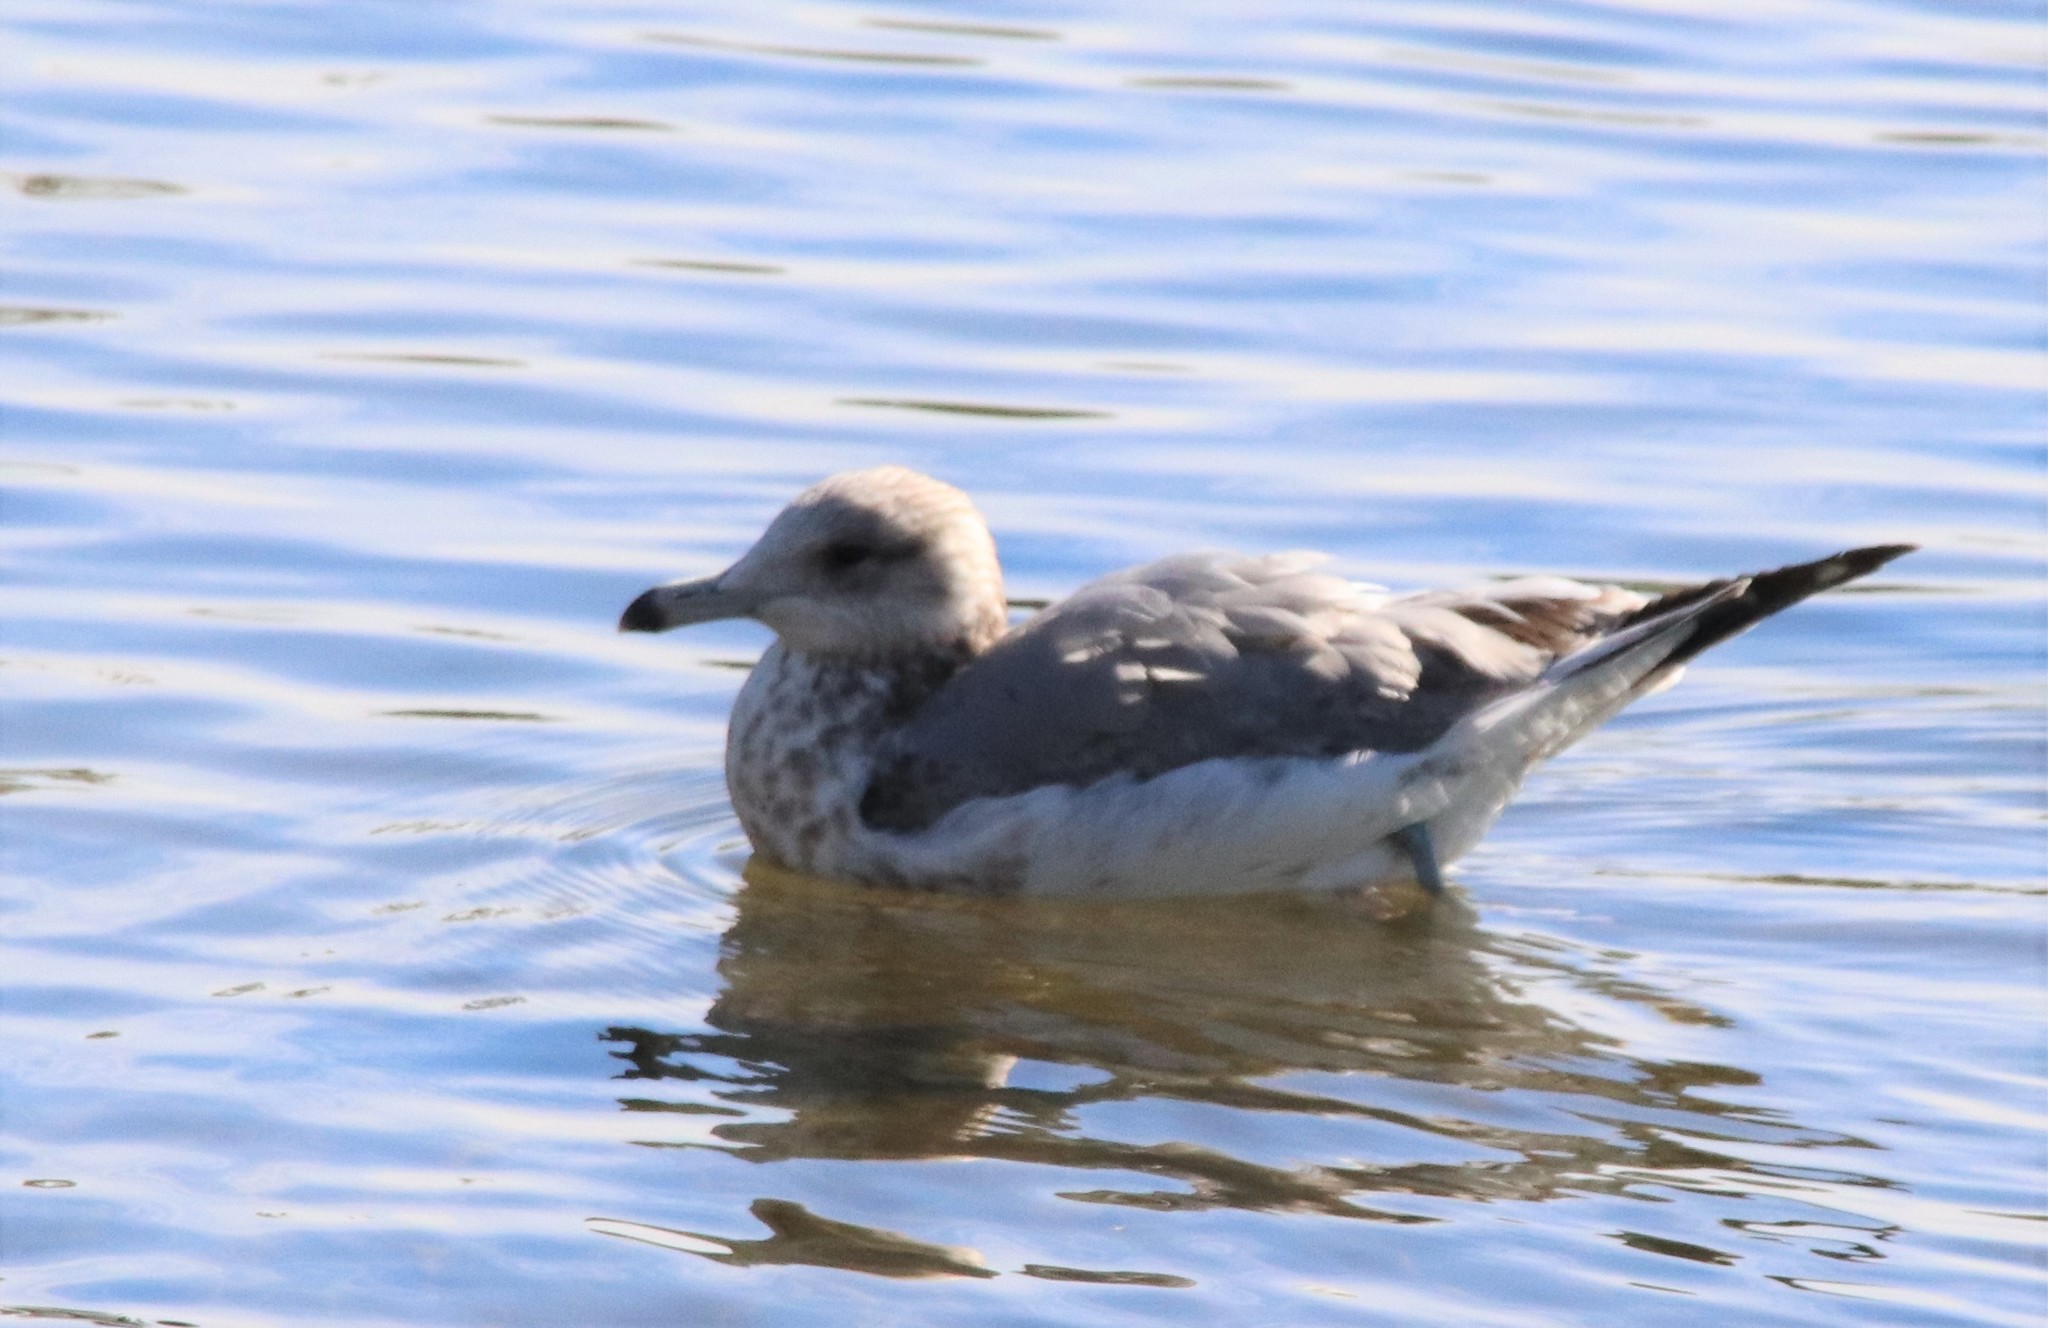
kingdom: Animalia
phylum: Chordata
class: Aves
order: Charadriiformes
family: Laridae
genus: Larus
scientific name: Larus californicus
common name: California gull
